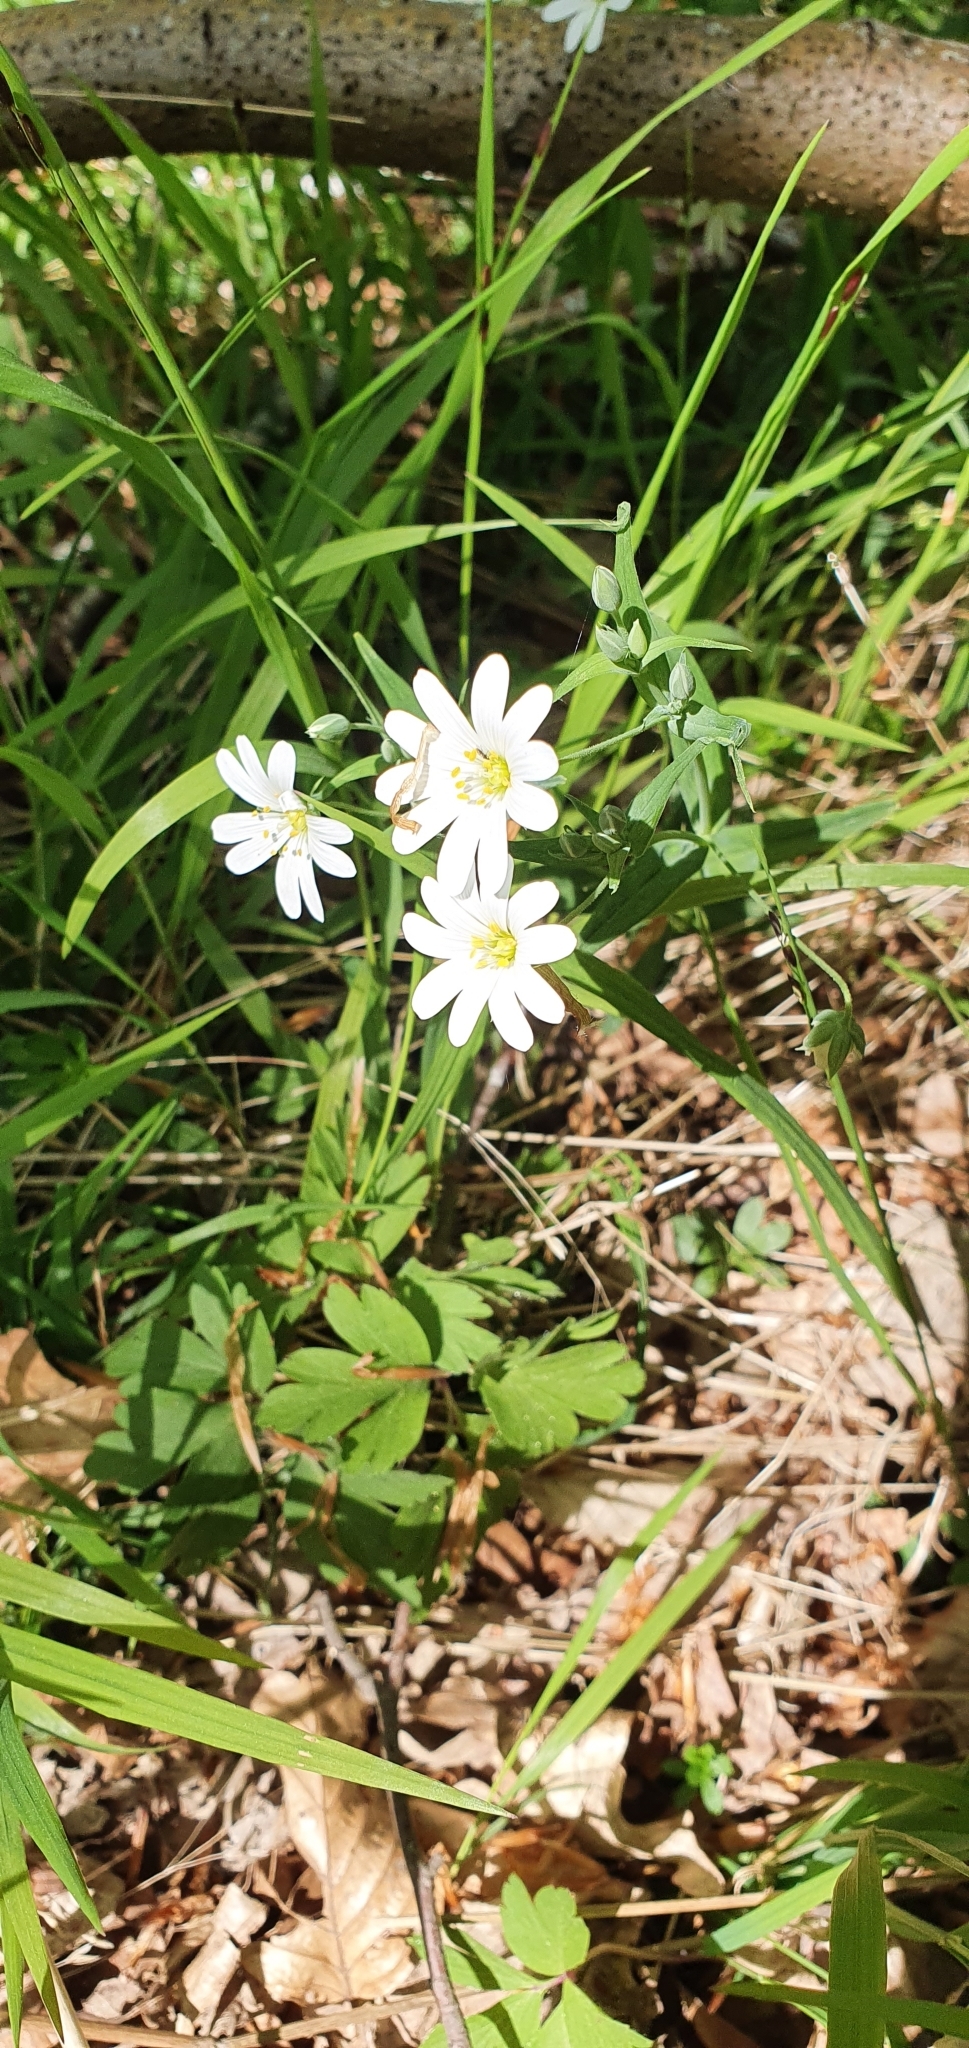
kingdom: Plantae
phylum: Tracheophyta
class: Magnoliopsida
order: Caryophyllales
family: Caryophyllaceae
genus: Rabelera
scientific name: Rabelera holostea
